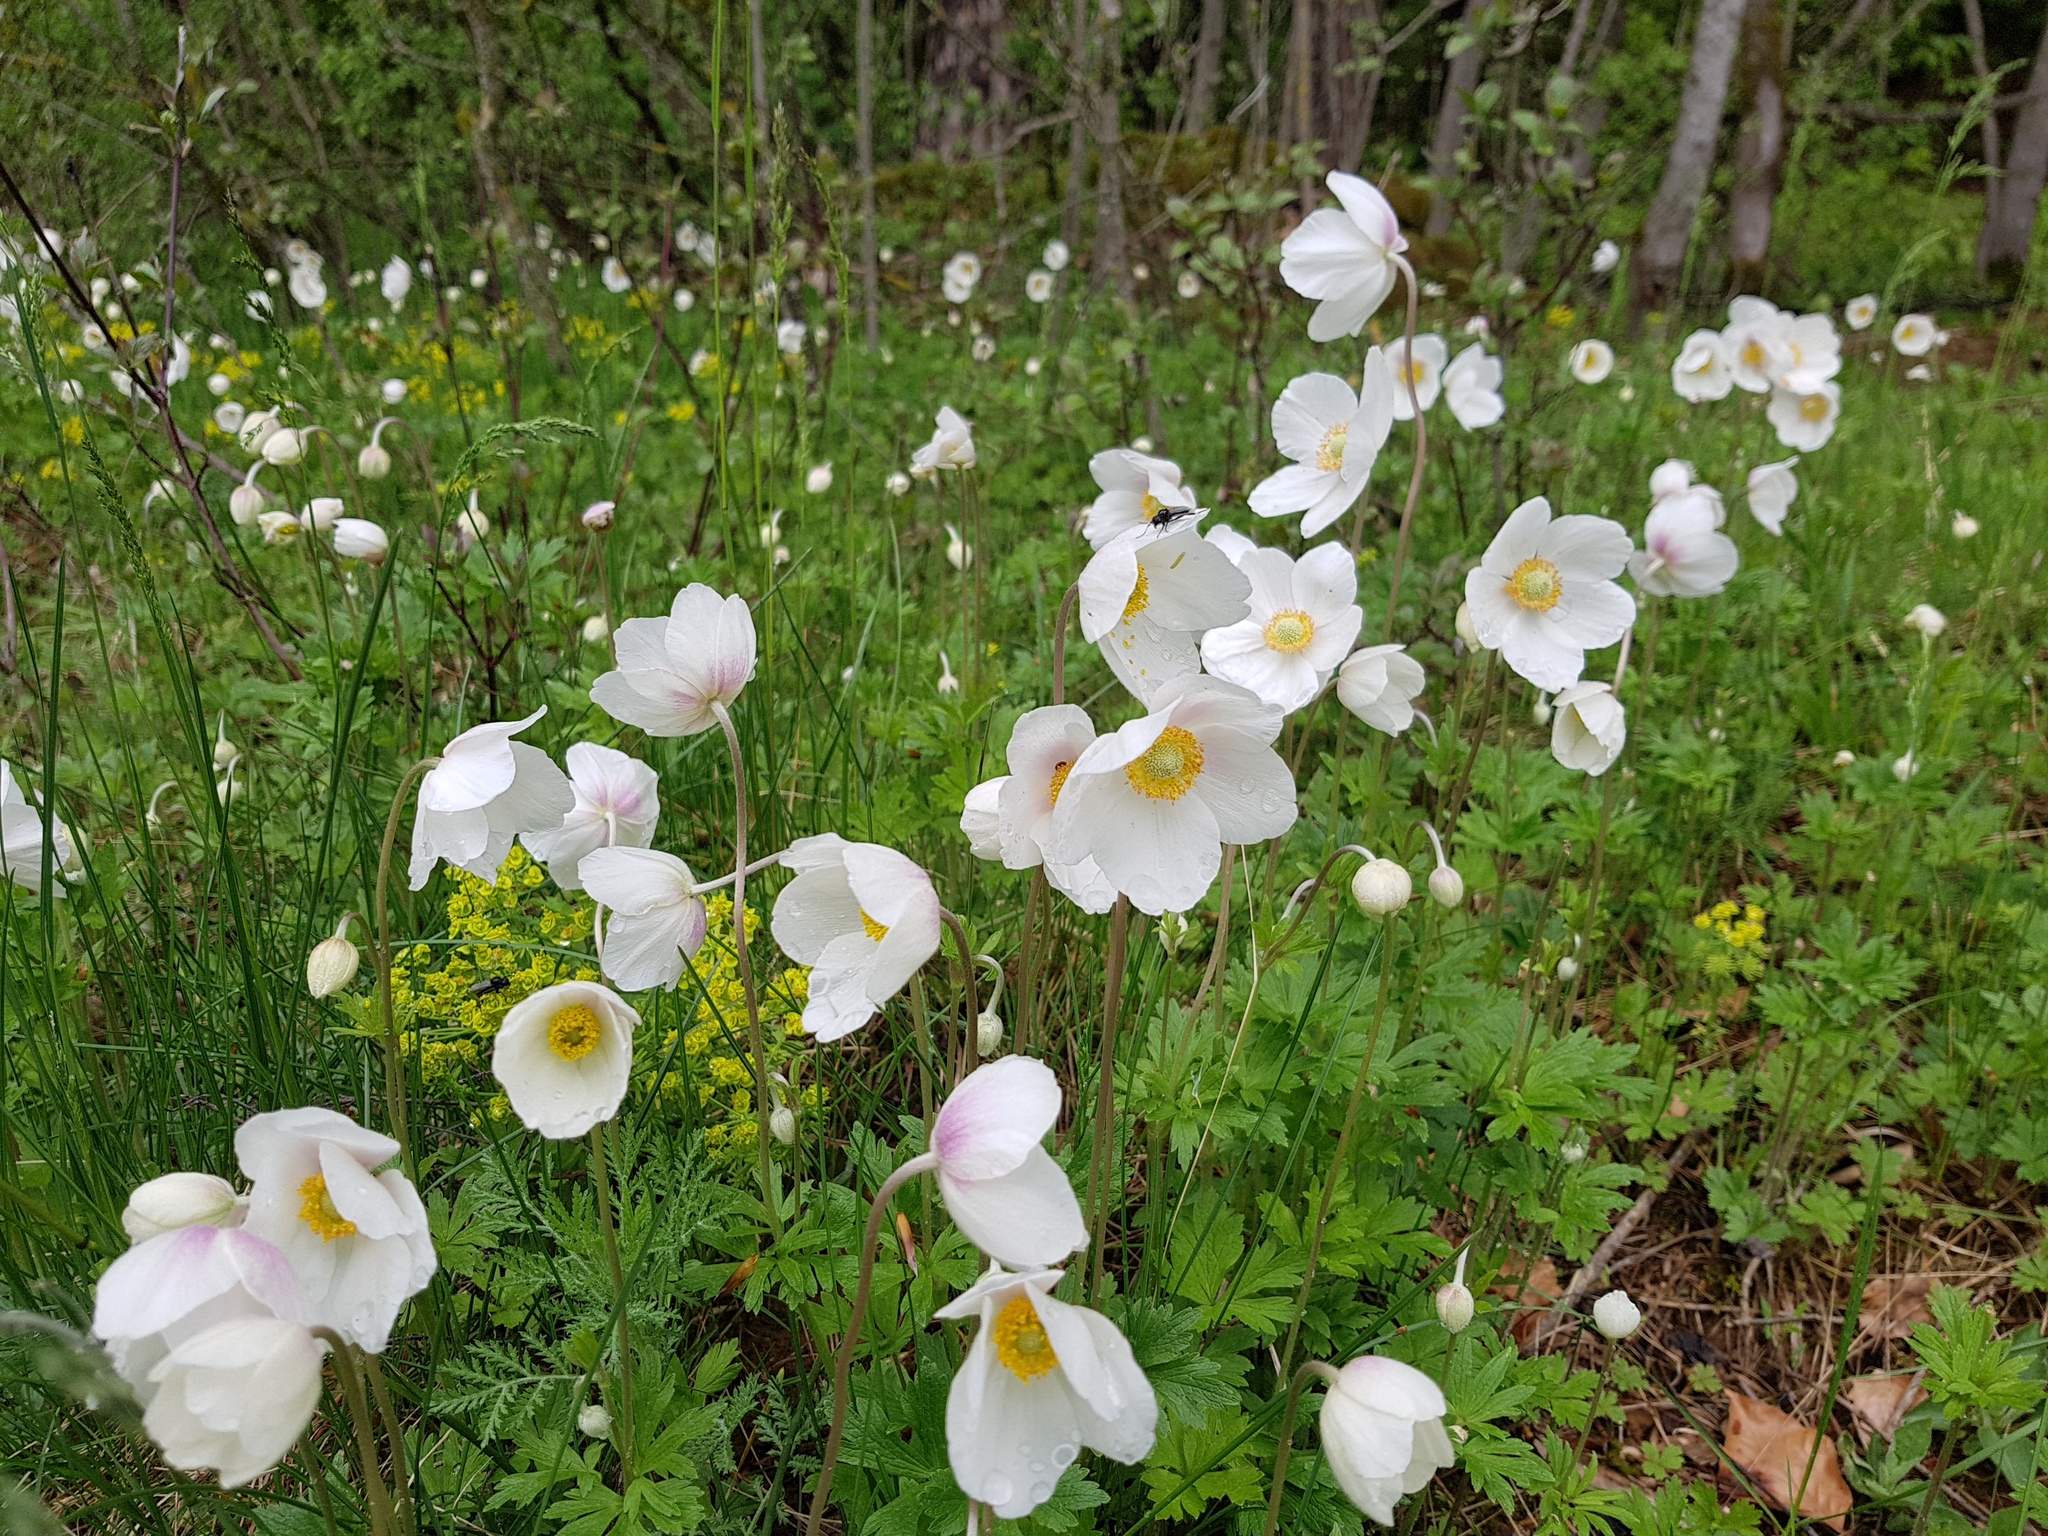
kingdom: Plantae
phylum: Tracheophyta
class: Magnoliopsida
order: Ranunculales
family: Ranunculaceae
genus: Anemone
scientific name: Anemone sylvestris
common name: Snowdrop anemone
